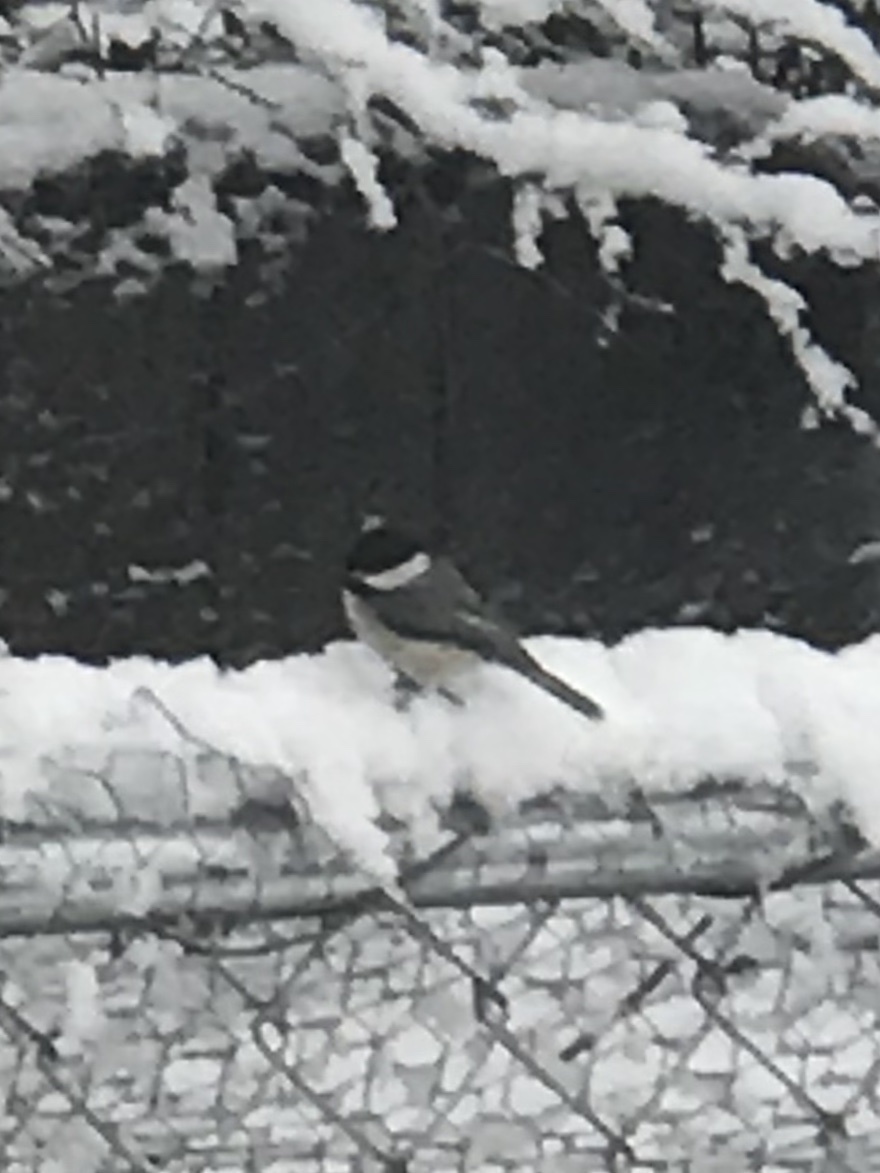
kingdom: Animalia
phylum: Chordata
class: Aves
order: Passeriformes
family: Paridae
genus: Poecile
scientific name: Poecile carolinensis
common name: Carolina chickadee
